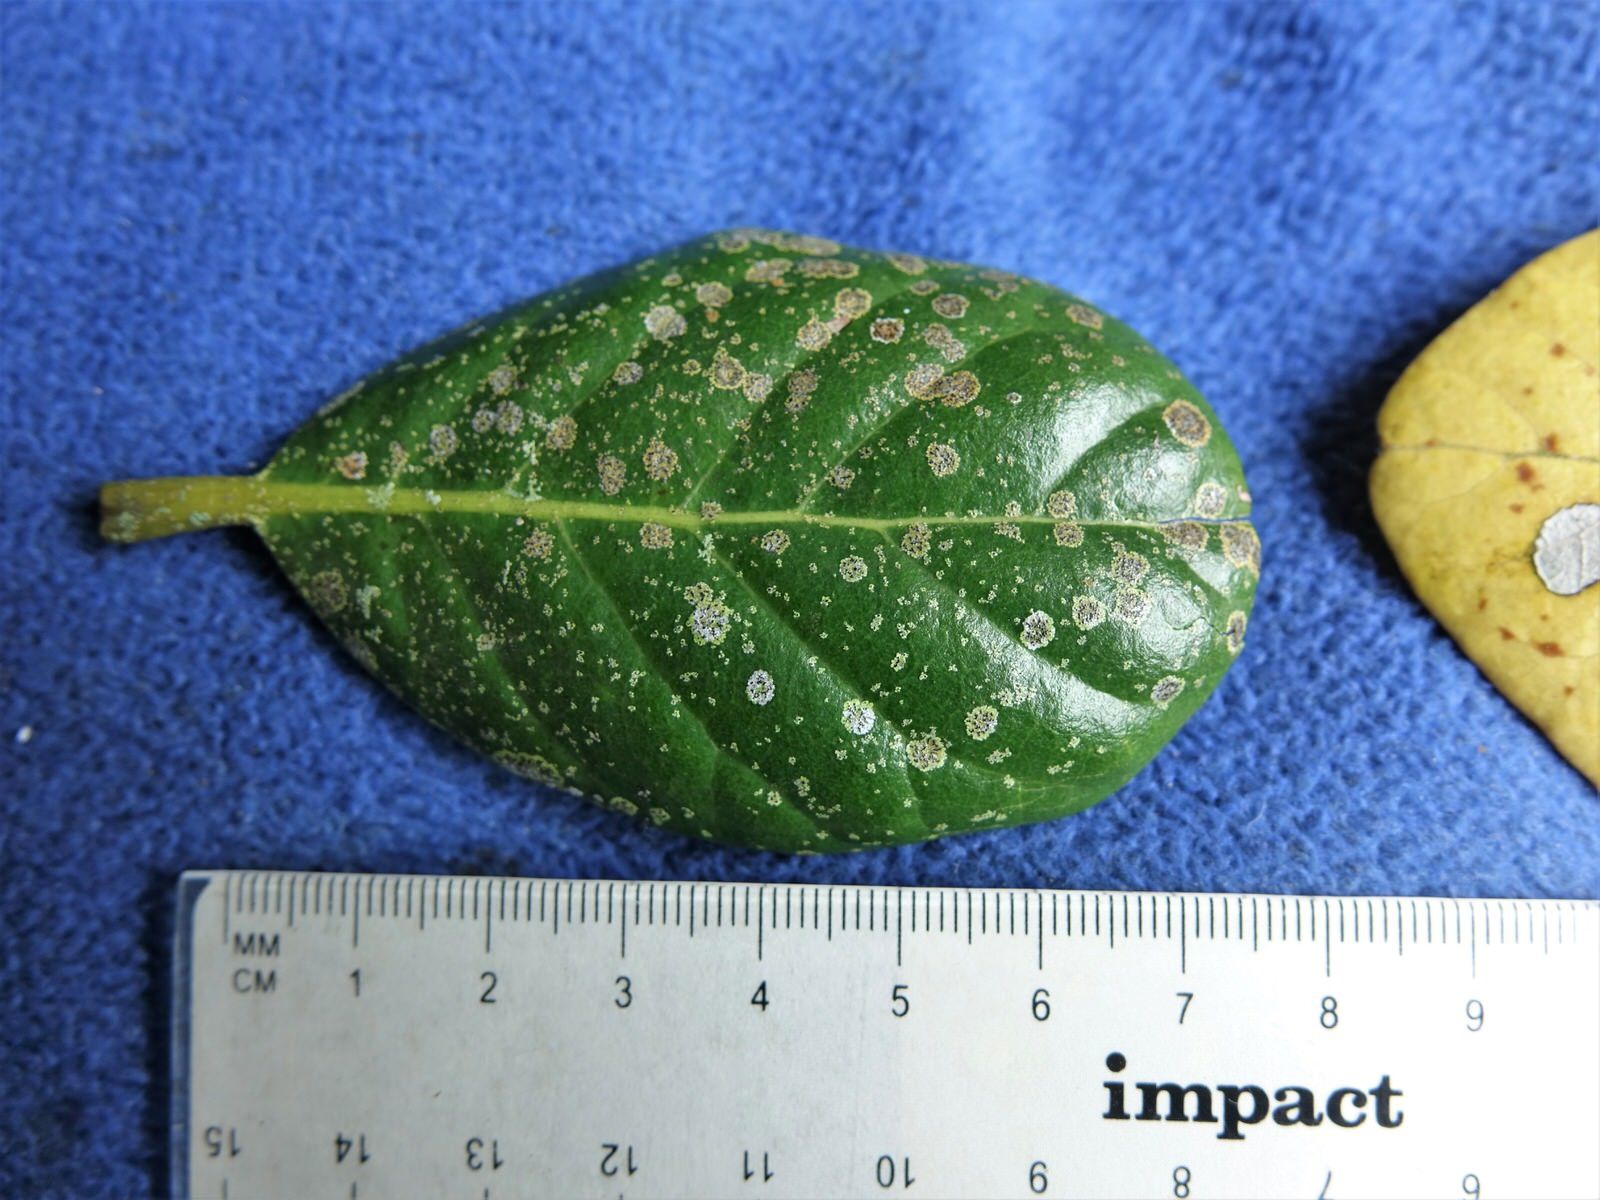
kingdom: Fungi
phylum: Ascomycota
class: Dothideomycetes
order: Strigulales
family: Strigulaceae
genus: Strigula
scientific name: Strigula novae-zelandiae
